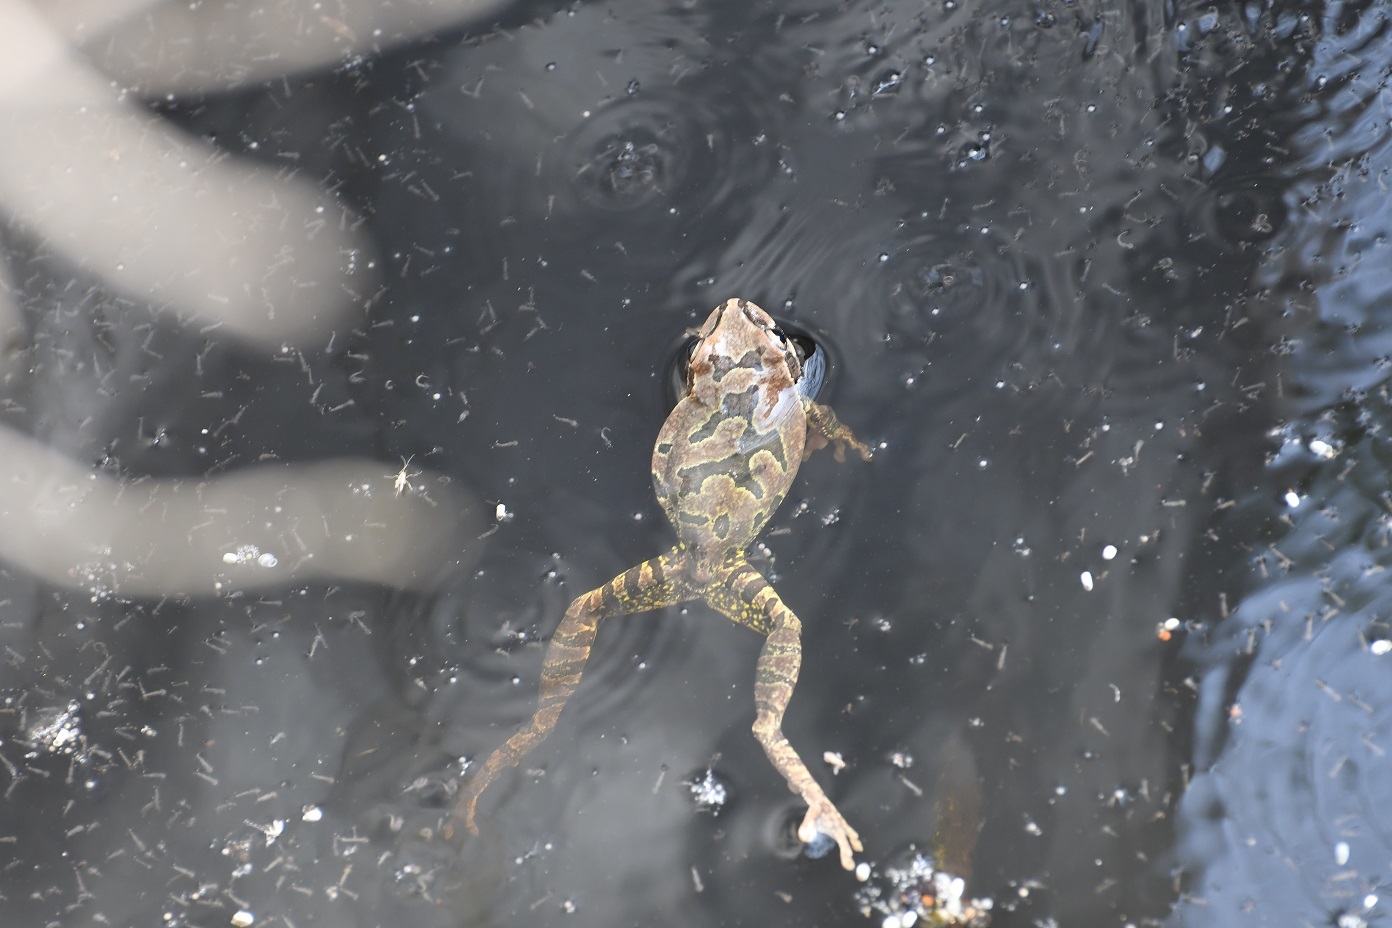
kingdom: Animalia
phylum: Chordata
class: Amphibia
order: Anura
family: Hylidae
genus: Smilisca
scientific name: Smilisca baudinii
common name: Mexican smilisca
